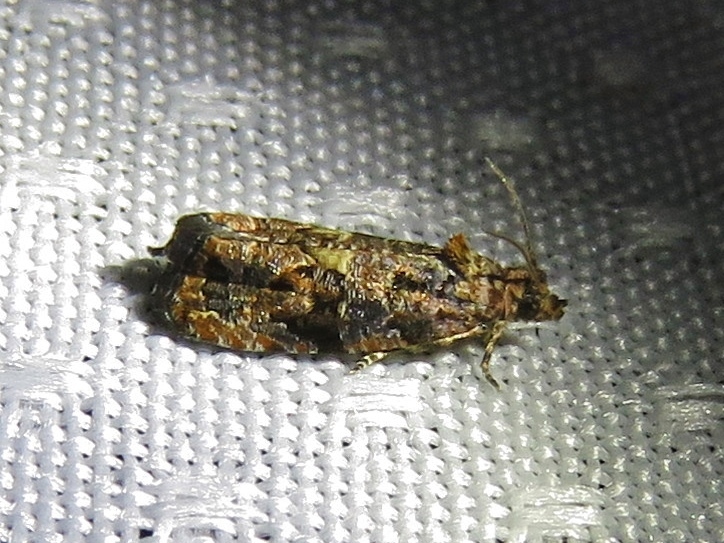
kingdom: Animalia
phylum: Arthropoda
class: Insecta
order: Lepidoptera
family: Tortricidae
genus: Endothenia
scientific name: Endothenia hebesana
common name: Verbena bud moth
